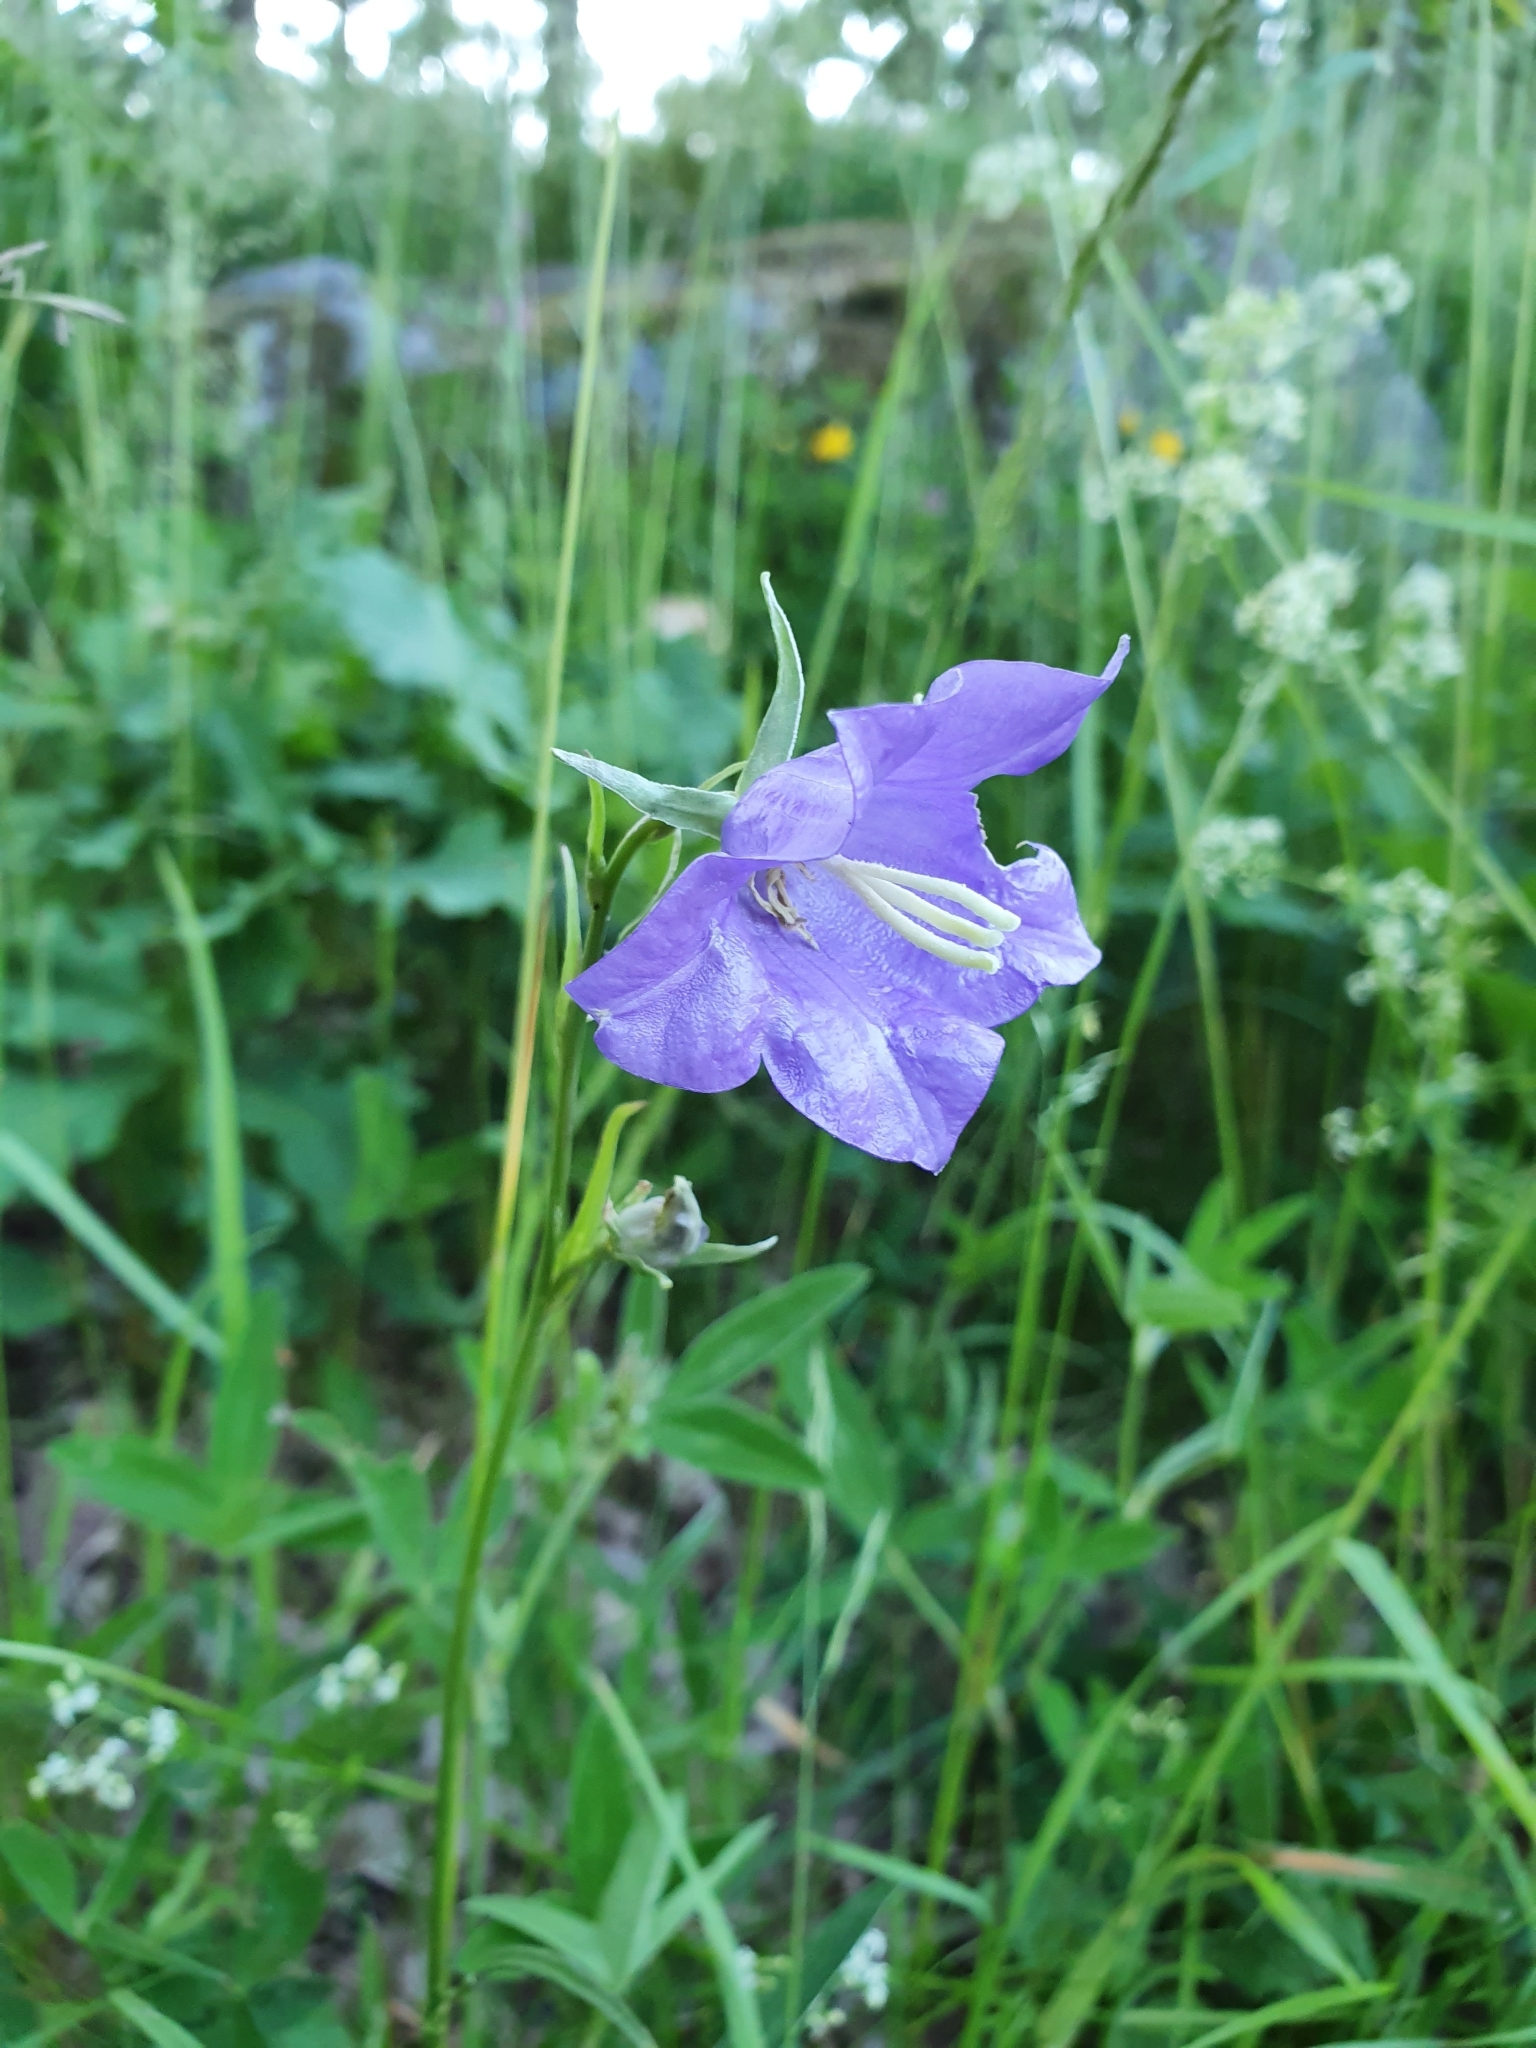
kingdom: Plantae
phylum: Tracheophyta
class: Magnoliopsida
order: Asterales
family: Campanulaceae
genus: Campanula
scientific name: Campanula persicifolia
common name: Peach-leaved bellflower
